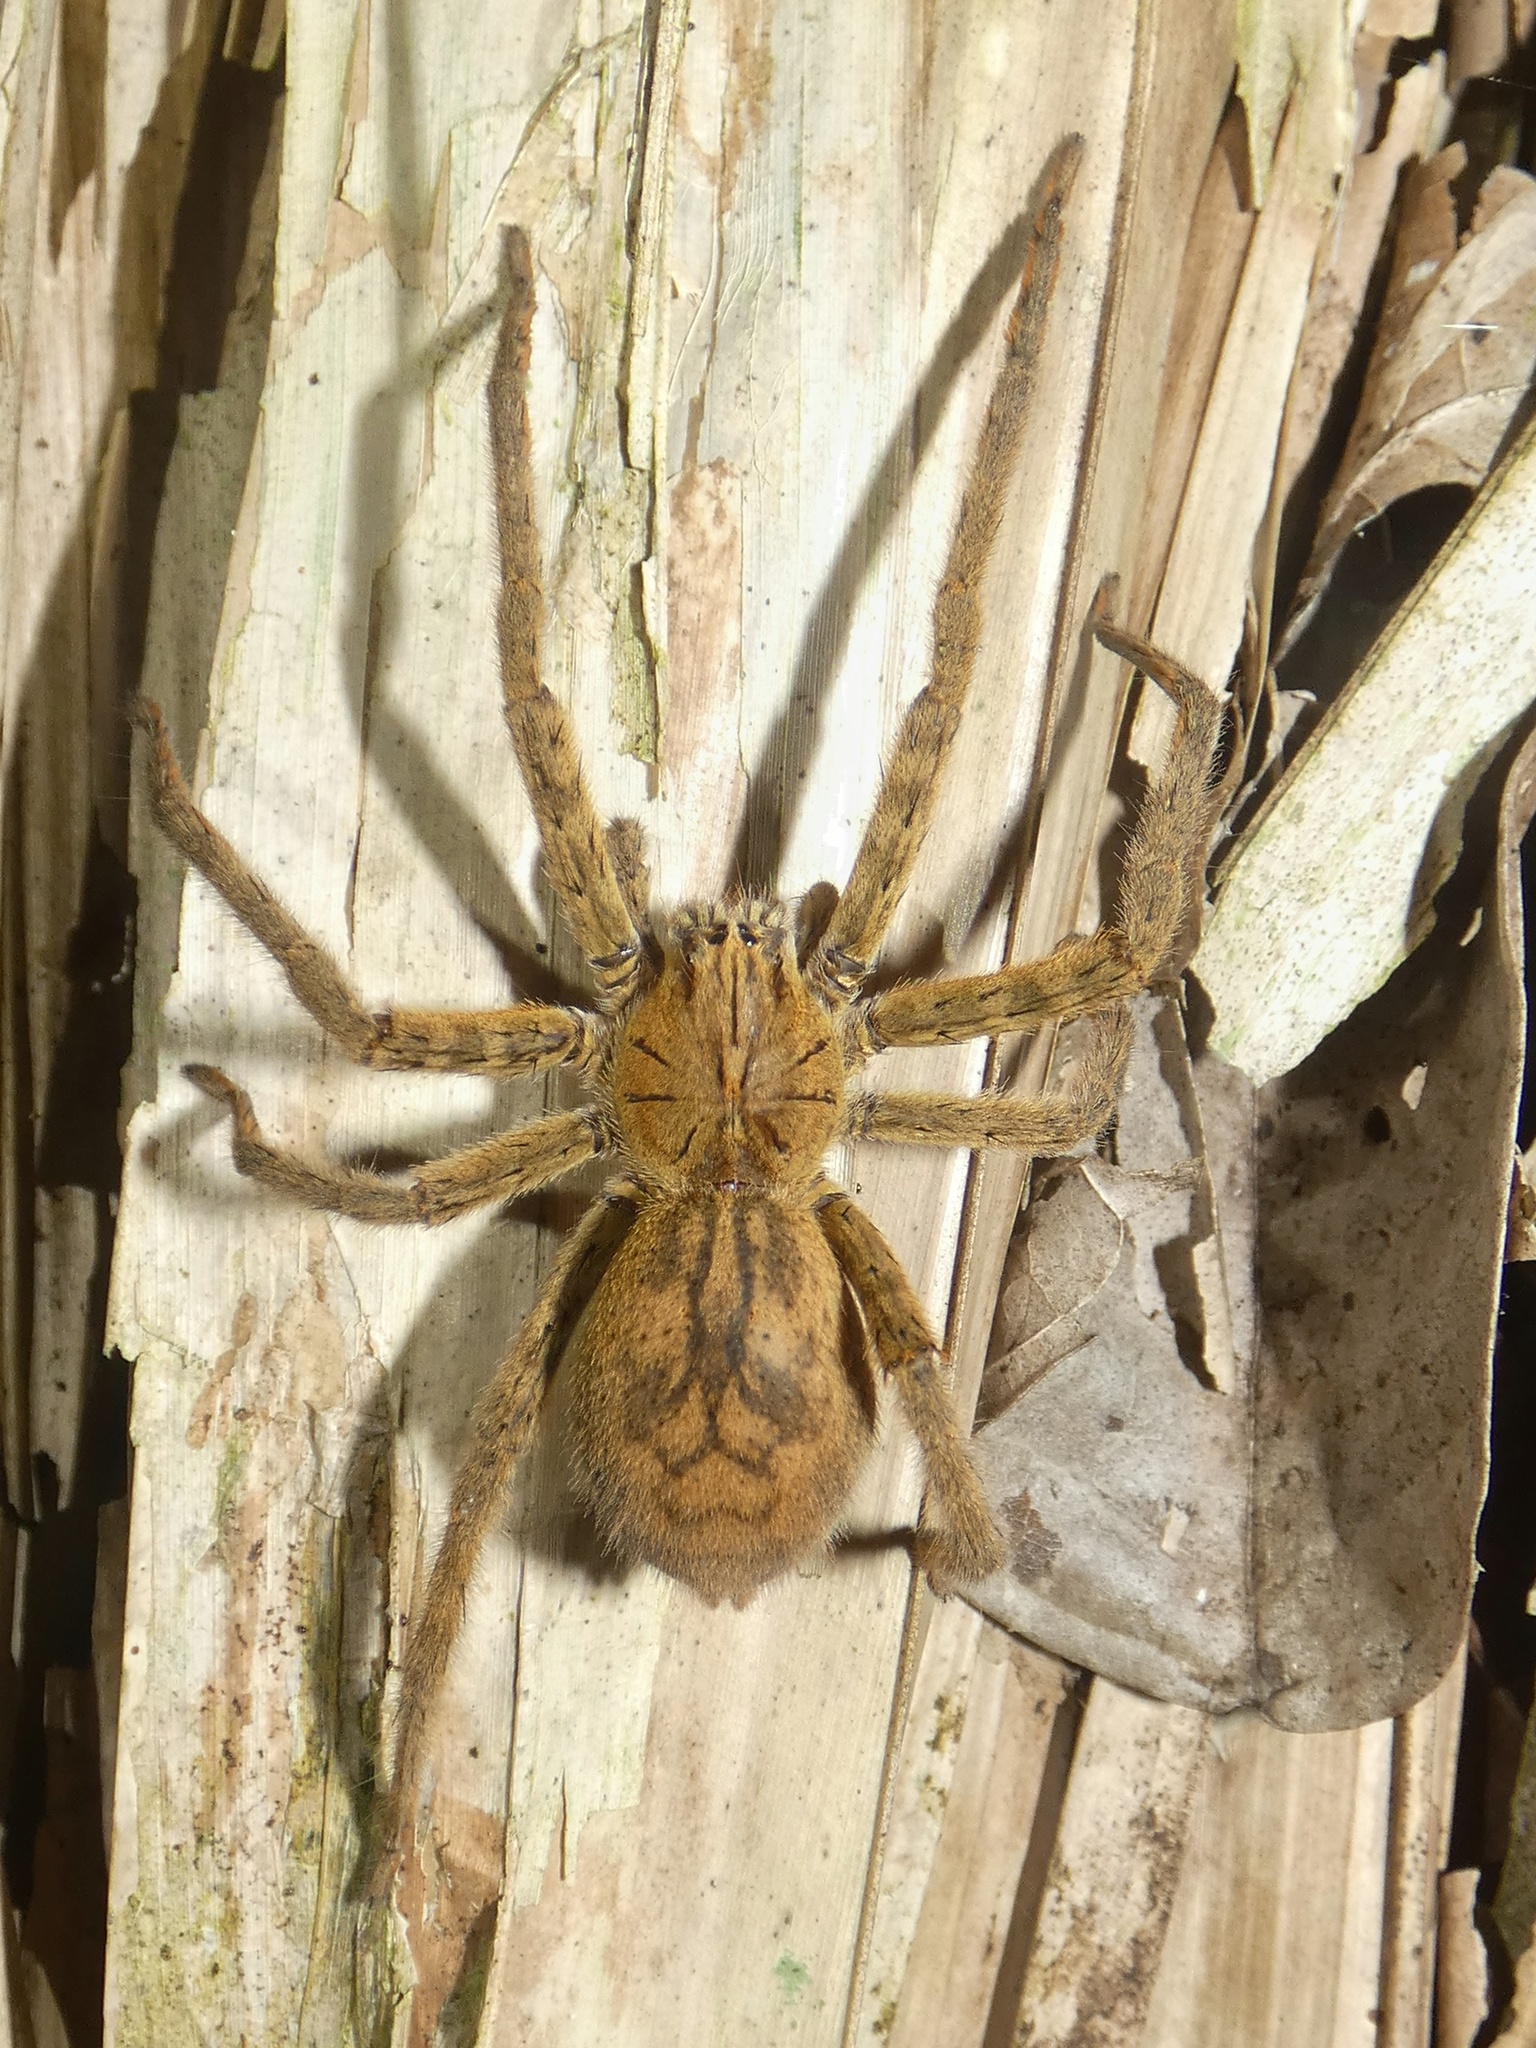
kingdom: Animalia
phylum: Arthropoda
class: Arachnida
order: Araneae
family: Trechaleidae
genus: Cupiennius
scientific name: Cupiennius coccineus
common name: Wandering spiders
